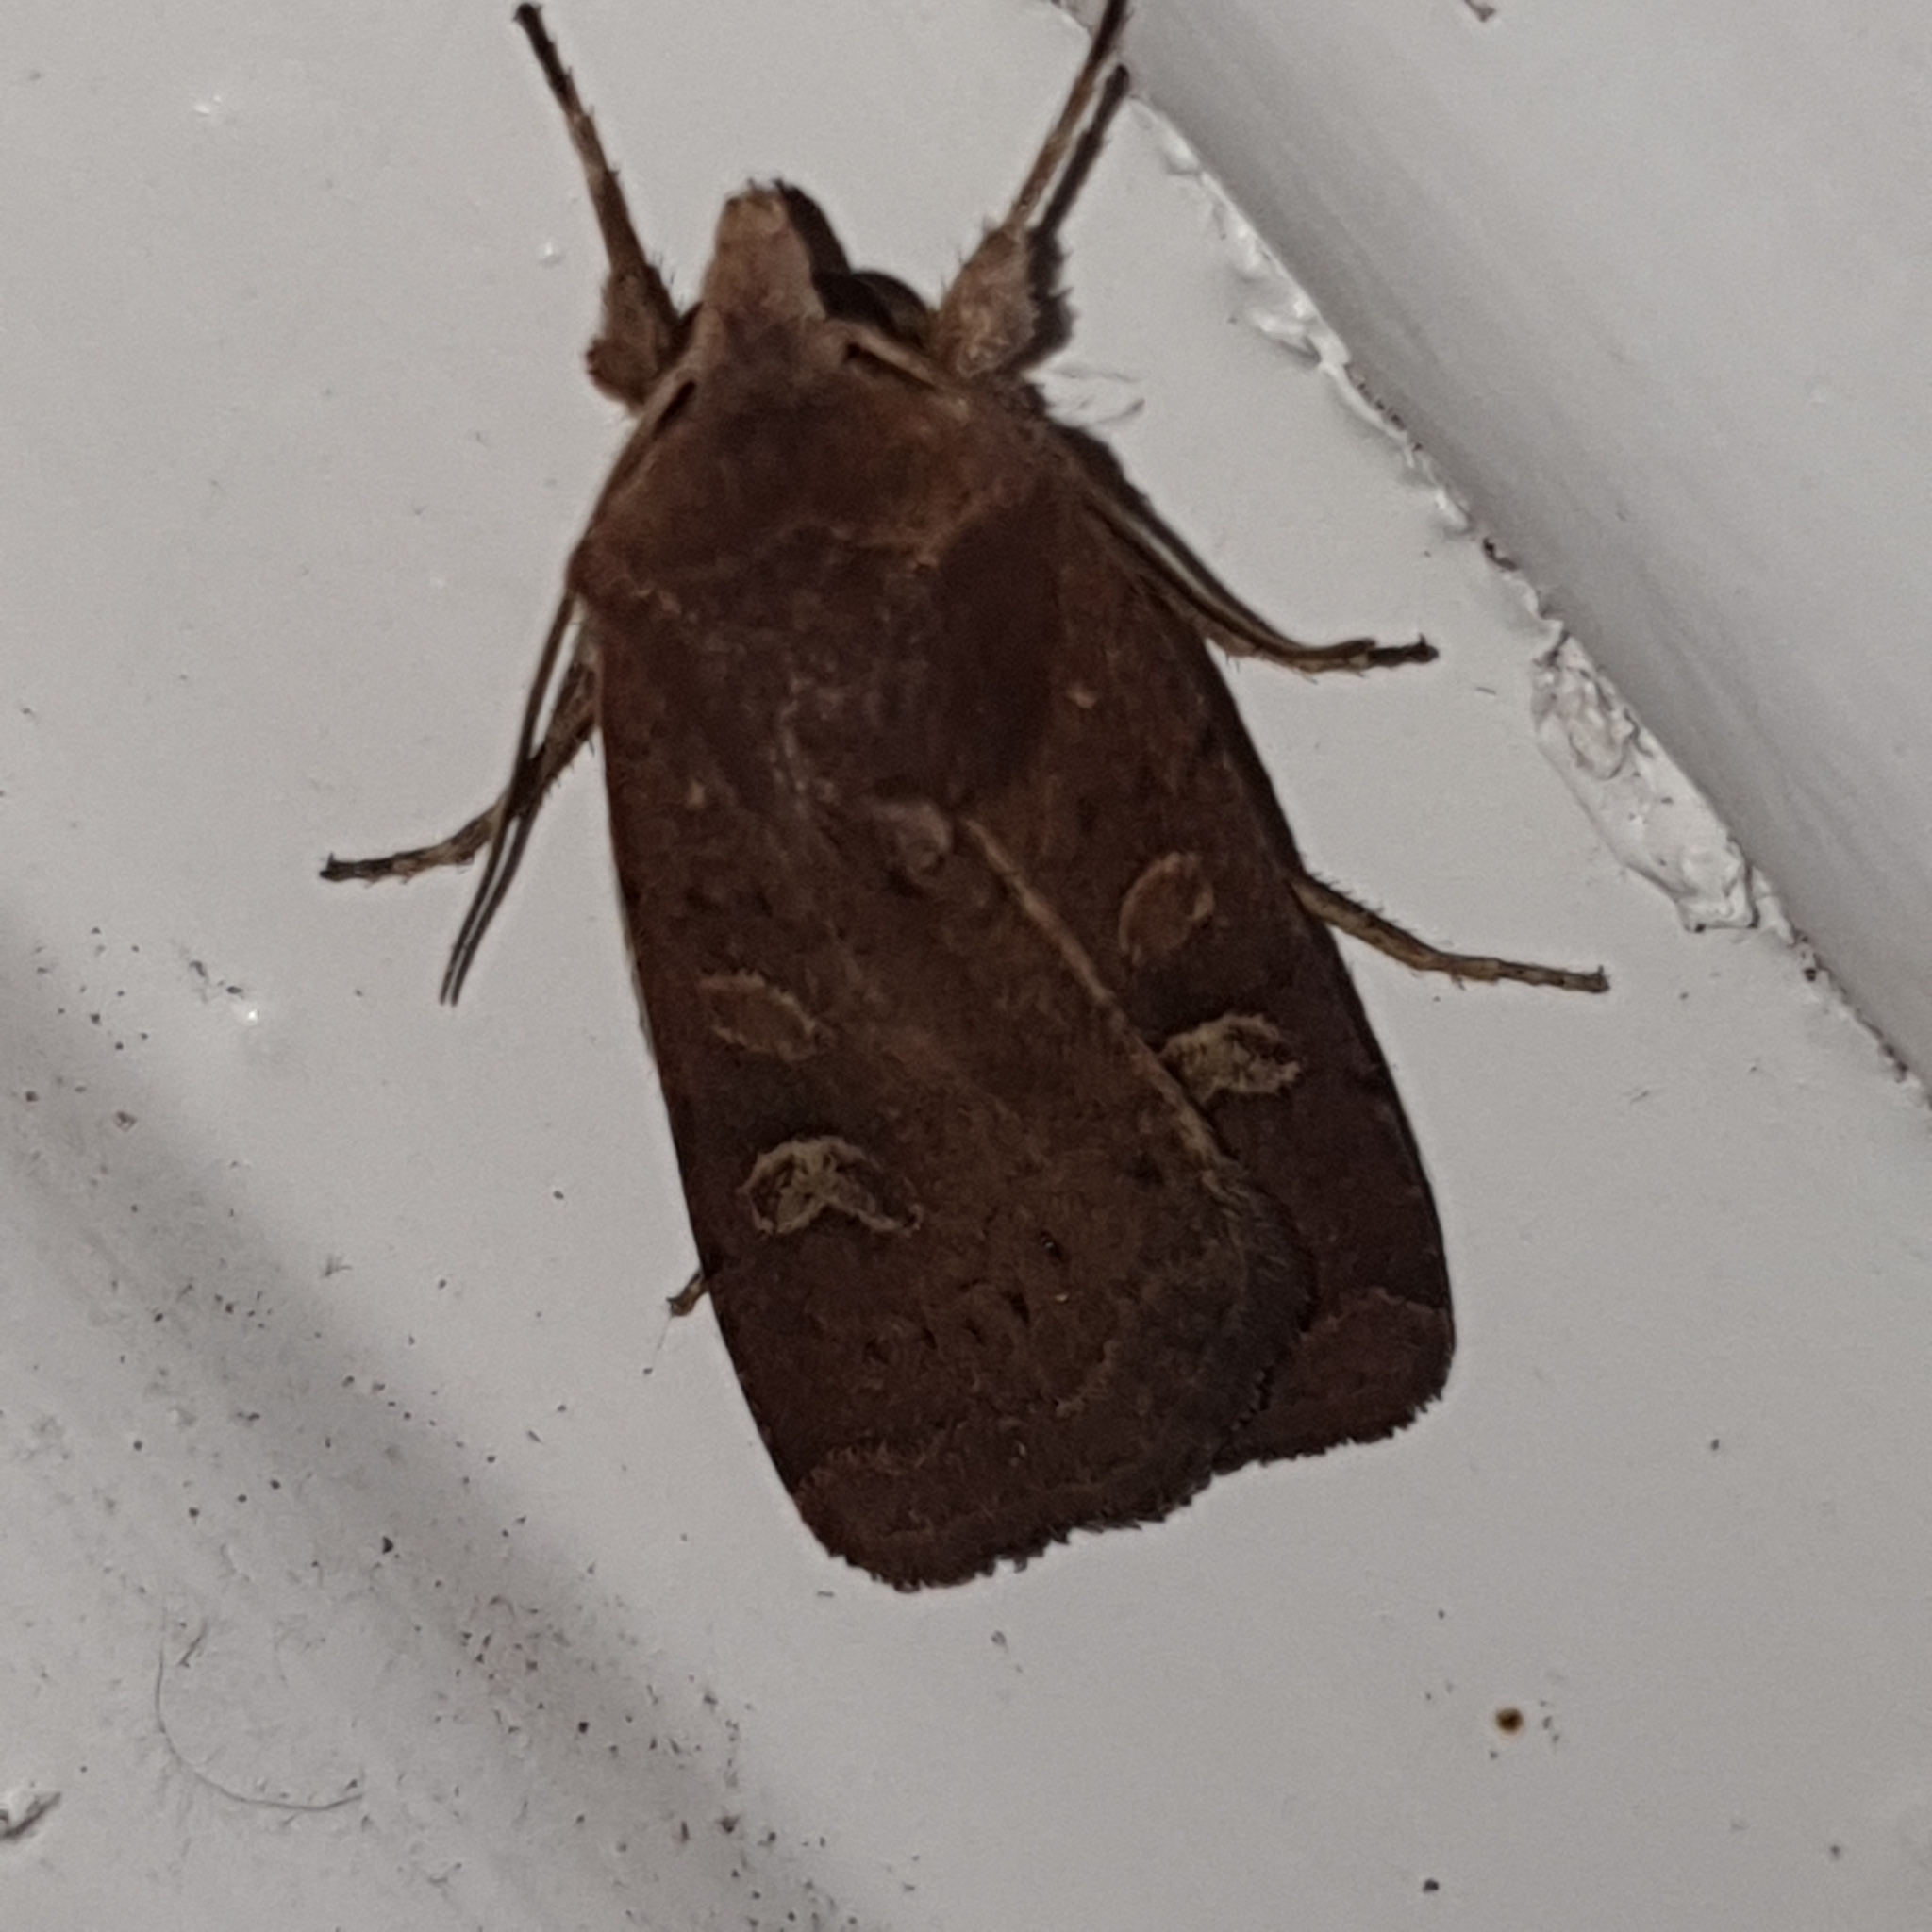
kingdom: Animalia
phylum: Arthropoda
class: Insecta
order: Lepidoptera
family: Noctuidae
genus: Xestia
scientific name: Xestia xanthographa
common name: Square-spot rustic
